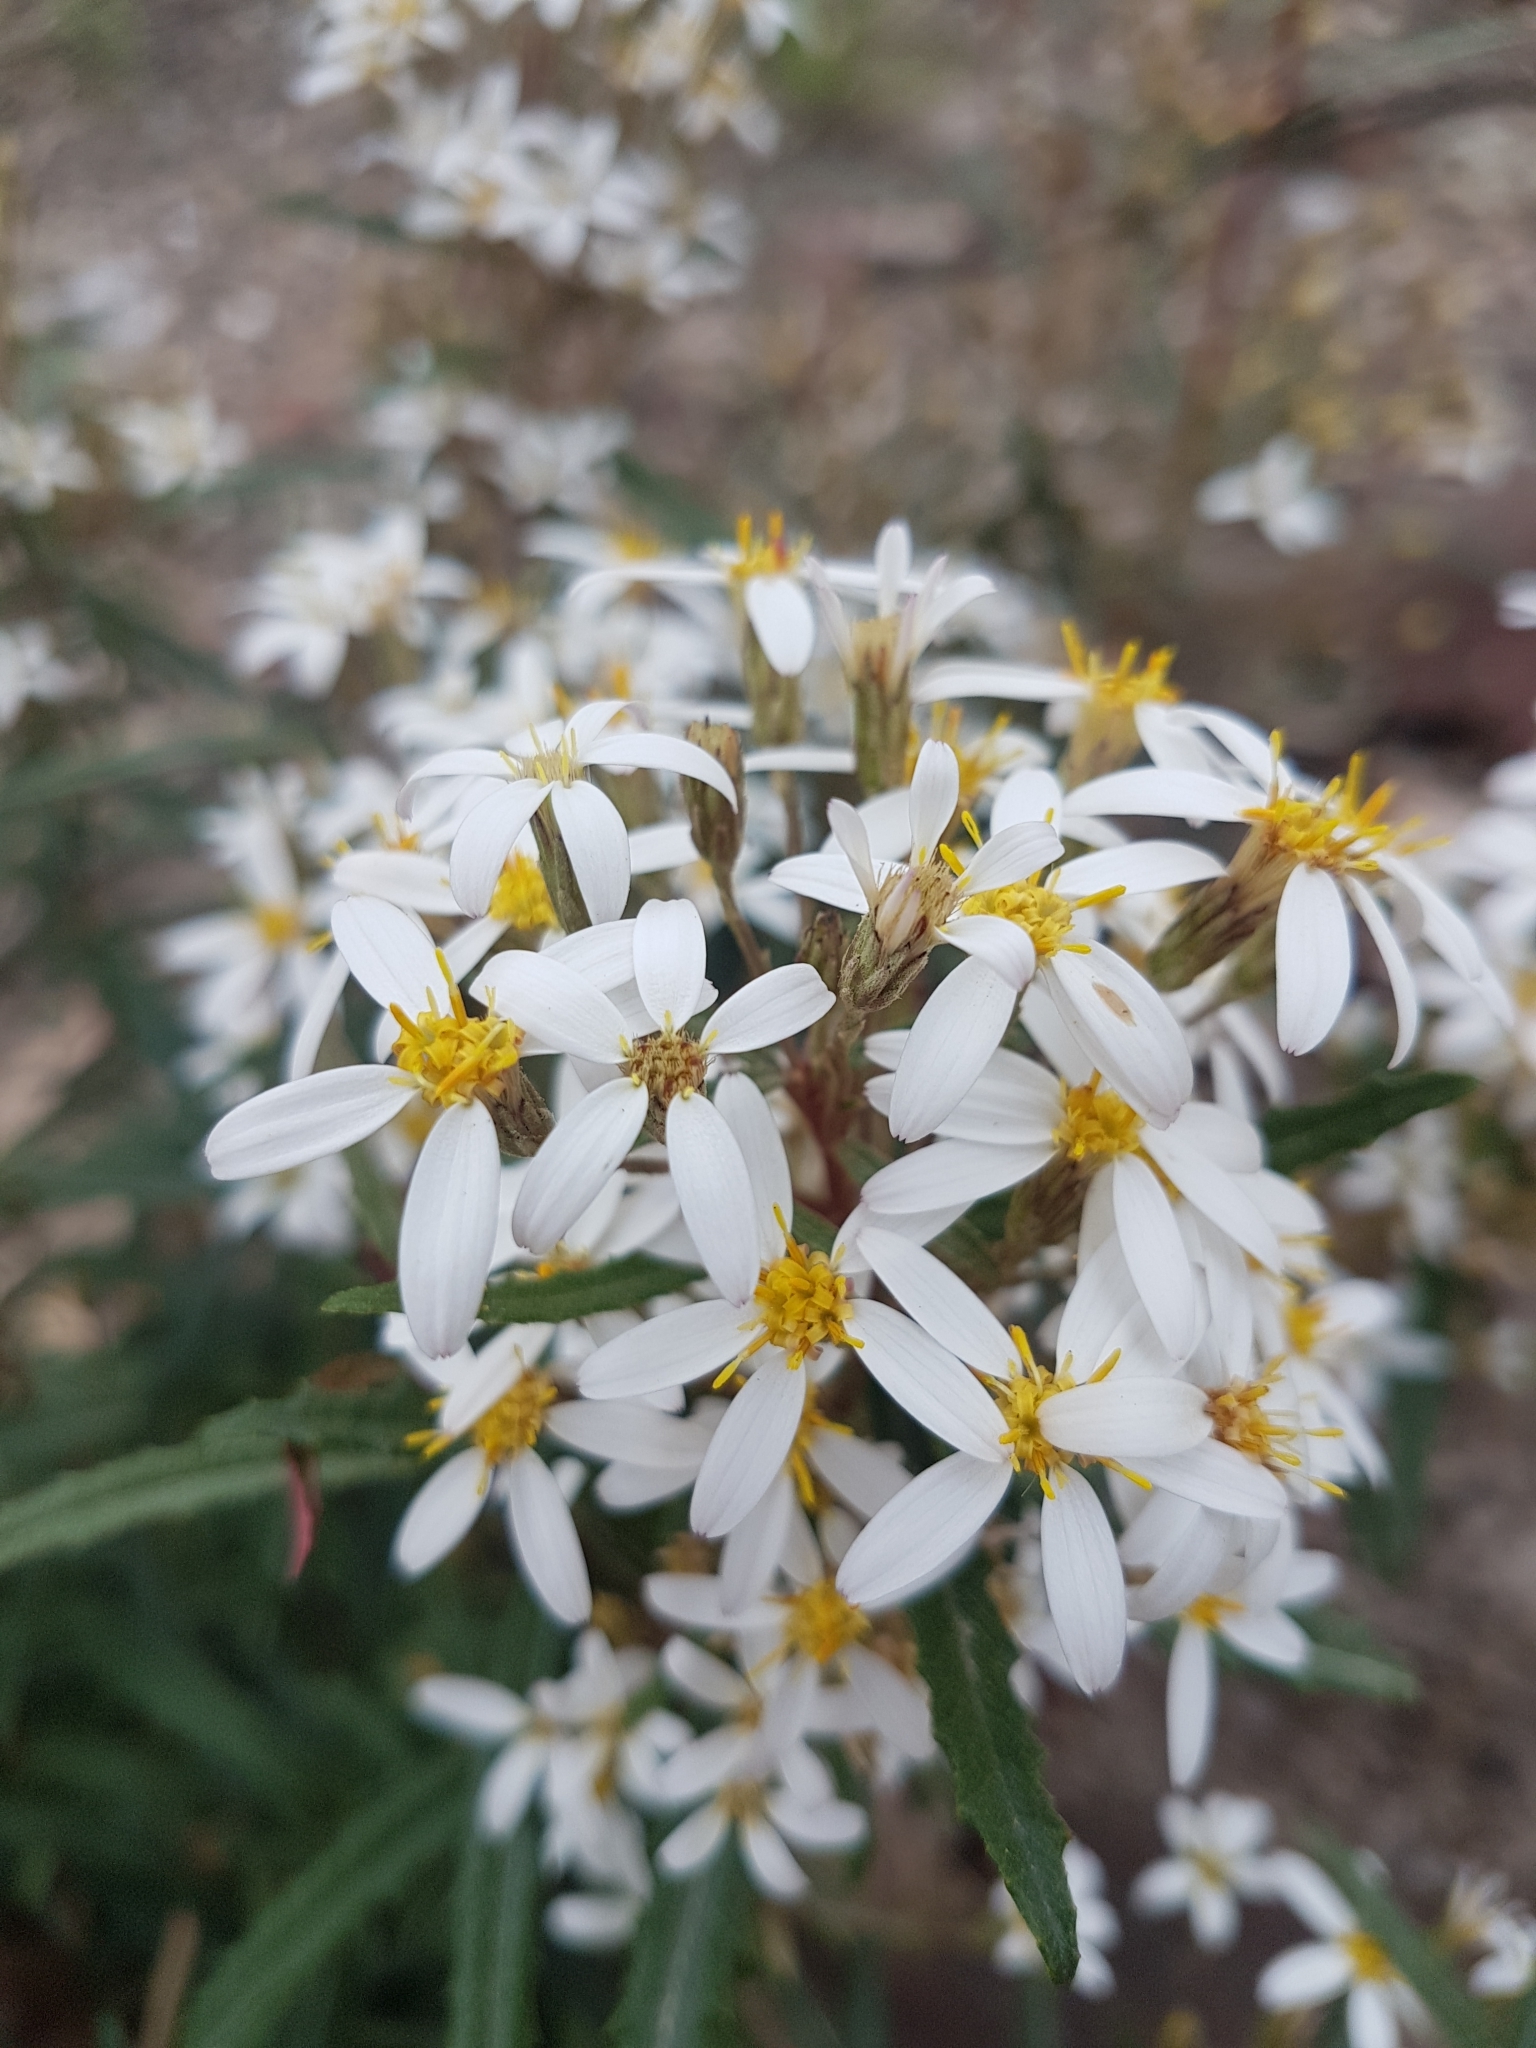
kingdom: Plantae
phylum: Tracheophyta
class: Magnoliopsida
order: Asterales
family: Asteraceae
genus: Olearia
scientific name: Olearia erubescens
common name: Moth daisybush
